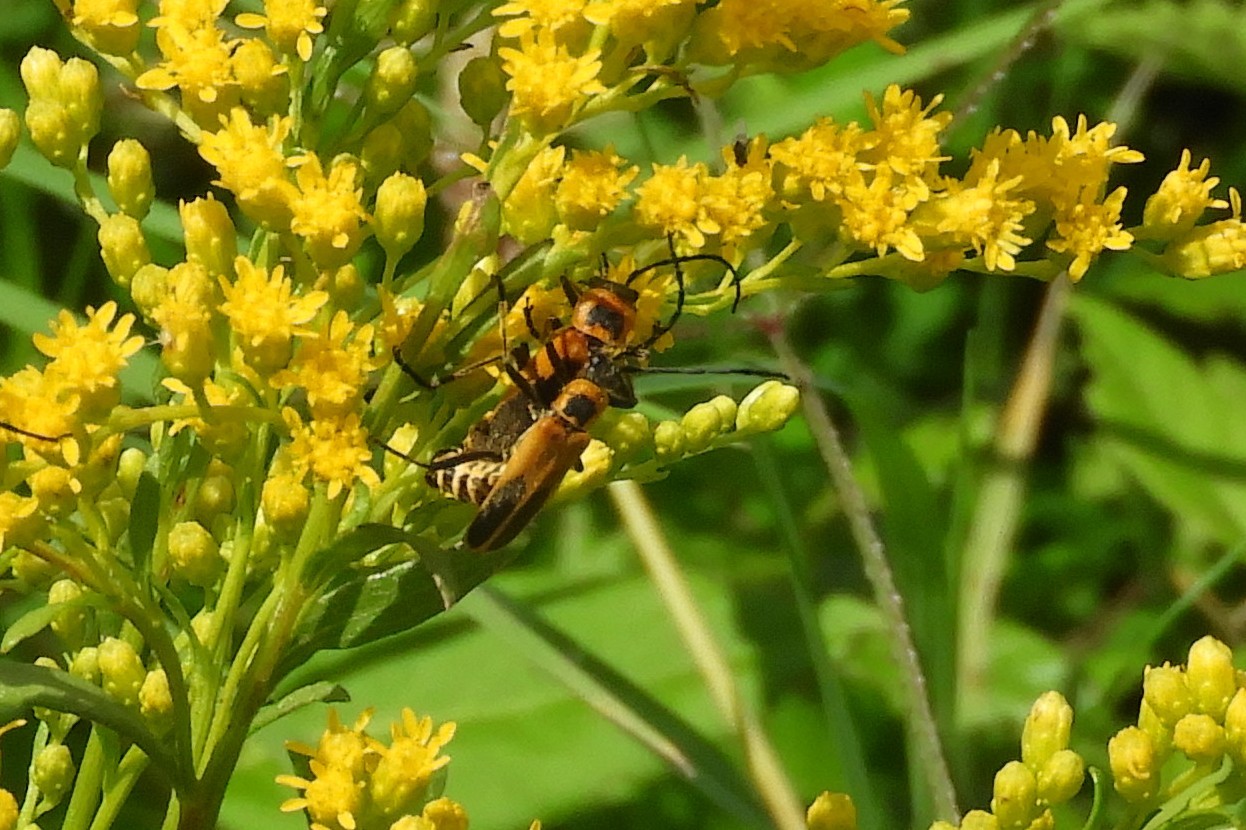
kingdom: Animalia
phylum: Arthropoda
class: Insecta
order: Coleoptera
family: Cantharidae
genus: Chauliognathus
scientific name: Chauliognathus pensylvanicus
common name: Goldenrod soldier beetle
